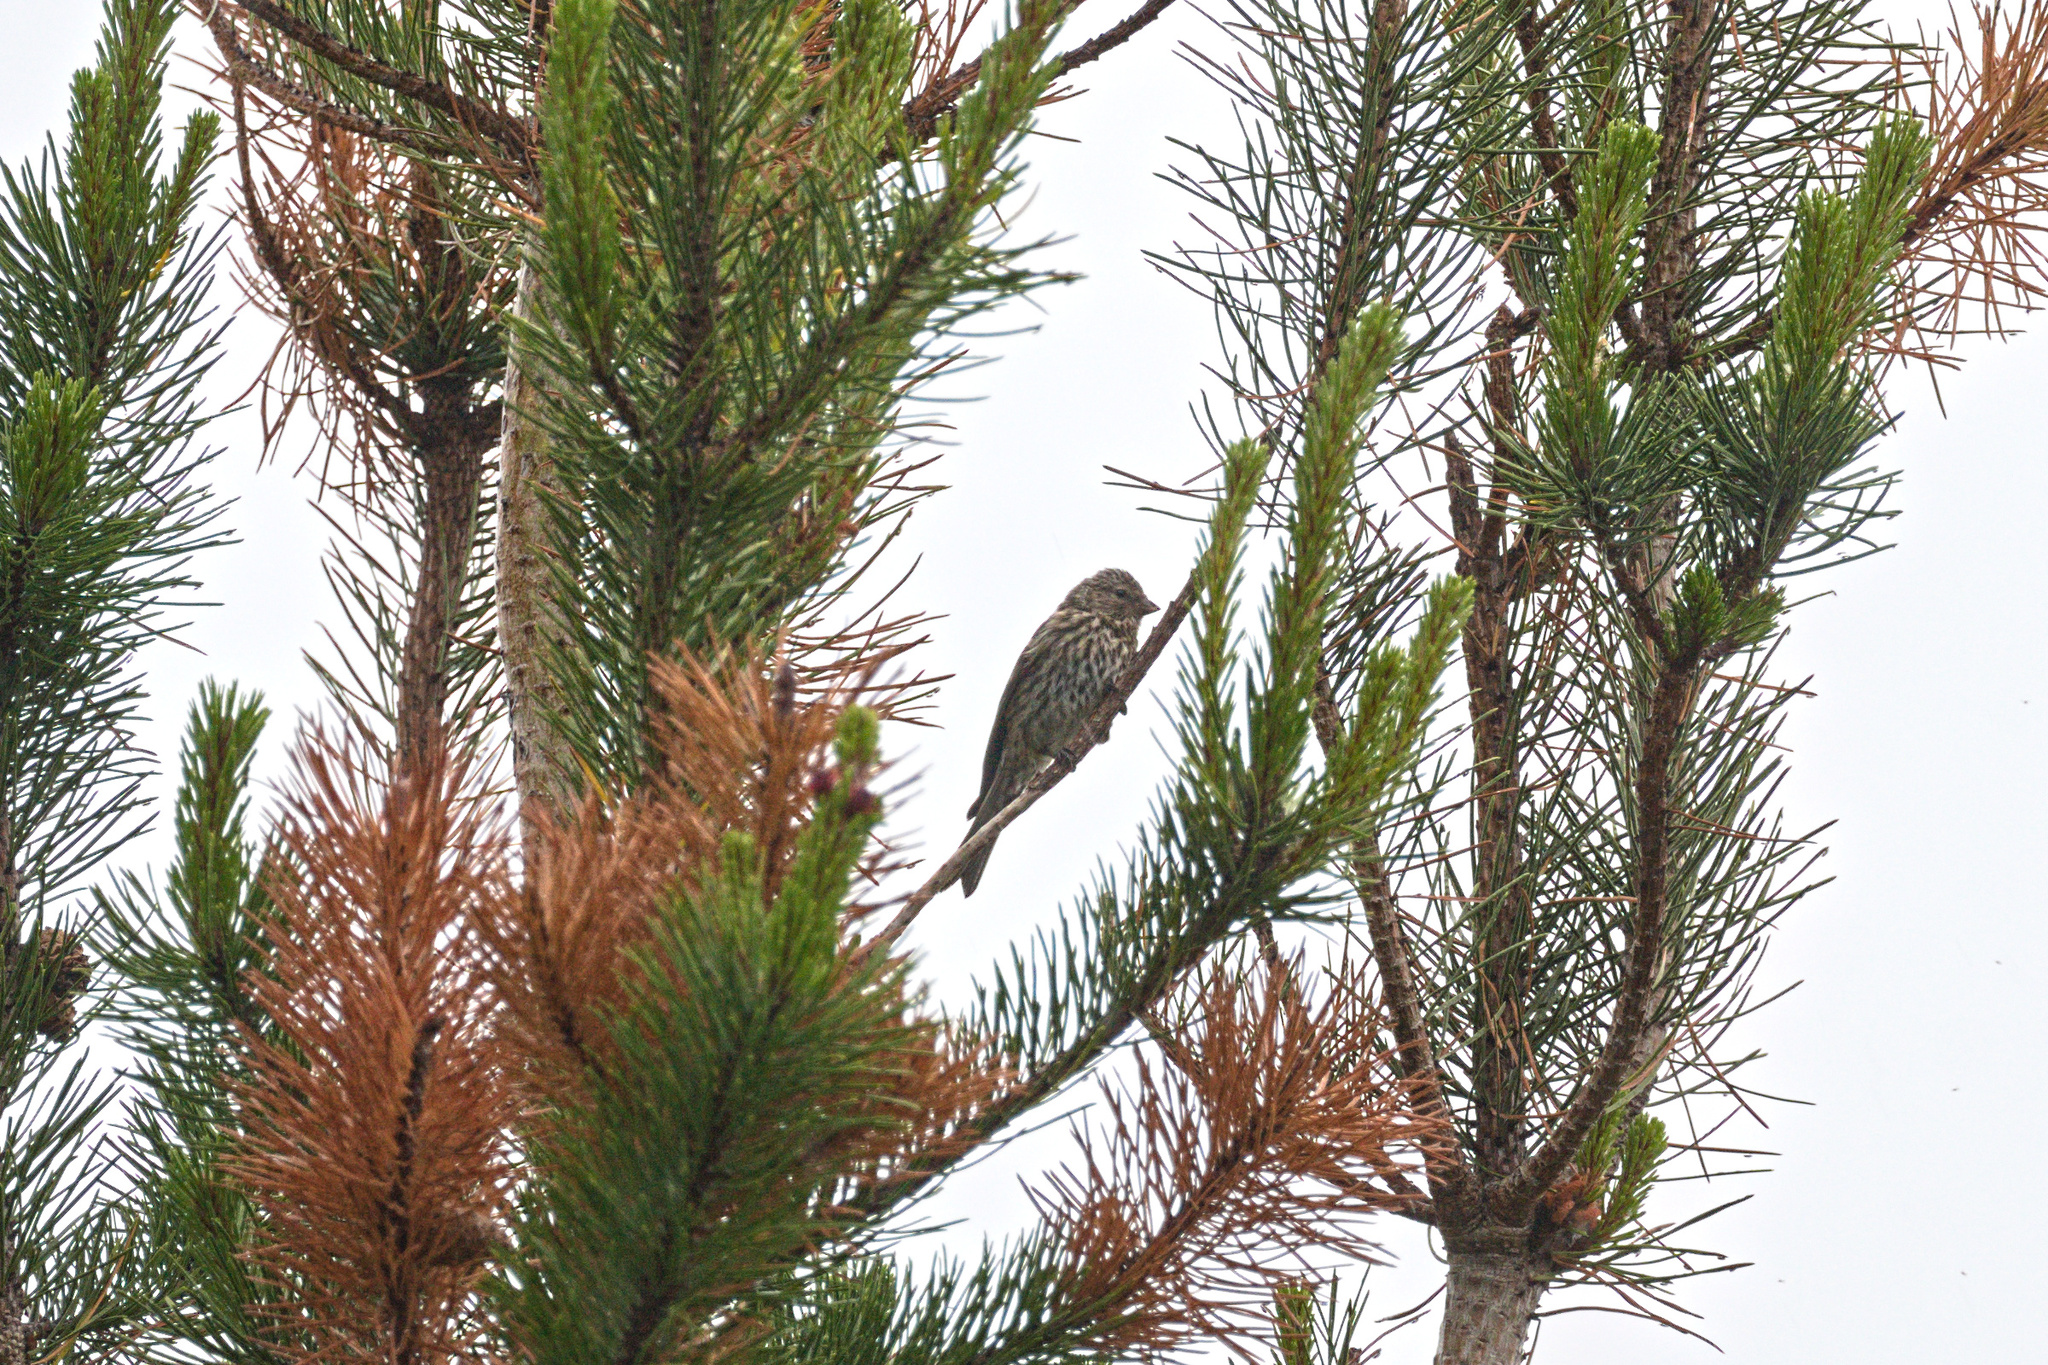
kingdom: Animalia
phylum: Chordata
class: Aves
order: Passeriformes
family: Fringillidae
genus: Acanthis
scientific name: Acanthis flammea
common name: Common redpoll
